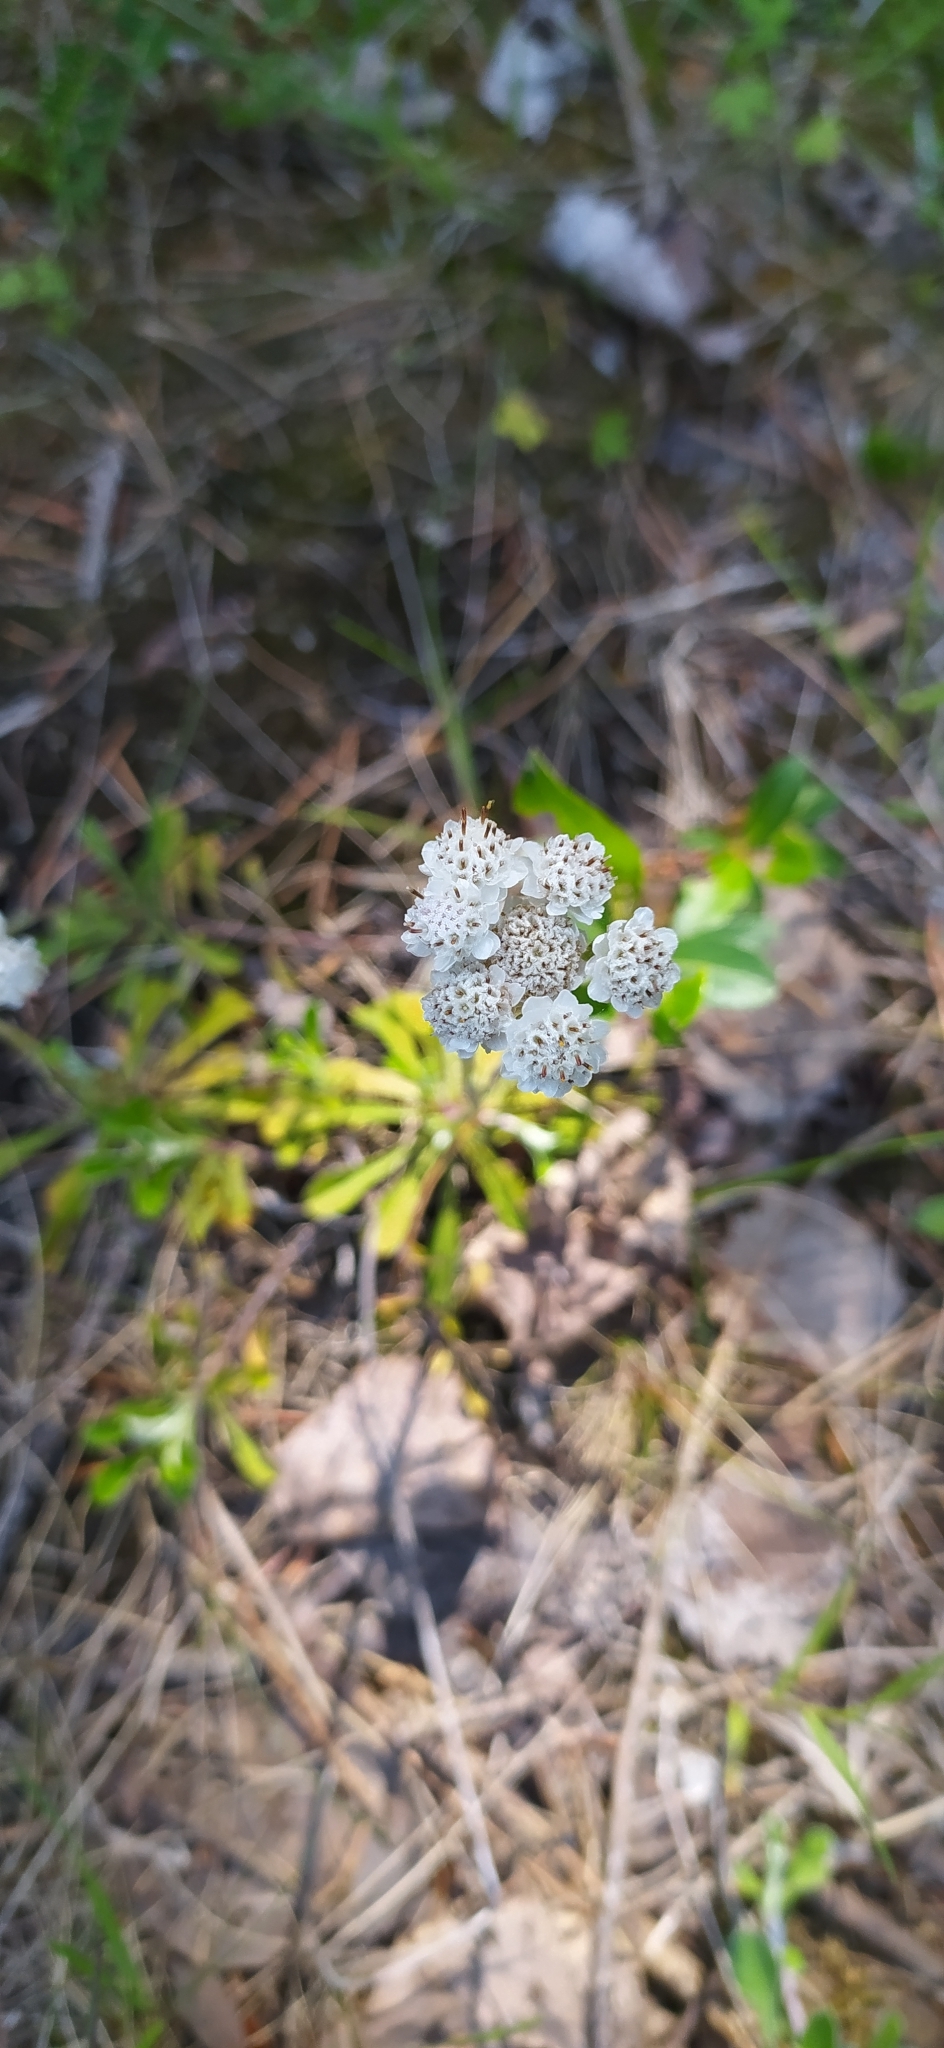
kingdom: Plantae
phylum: Tracheophyta
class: Magnoliopsida
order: Asterales
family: Asteraceae
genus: Antennaria
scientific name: Antennaria dioica
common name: Mountain everlasting
